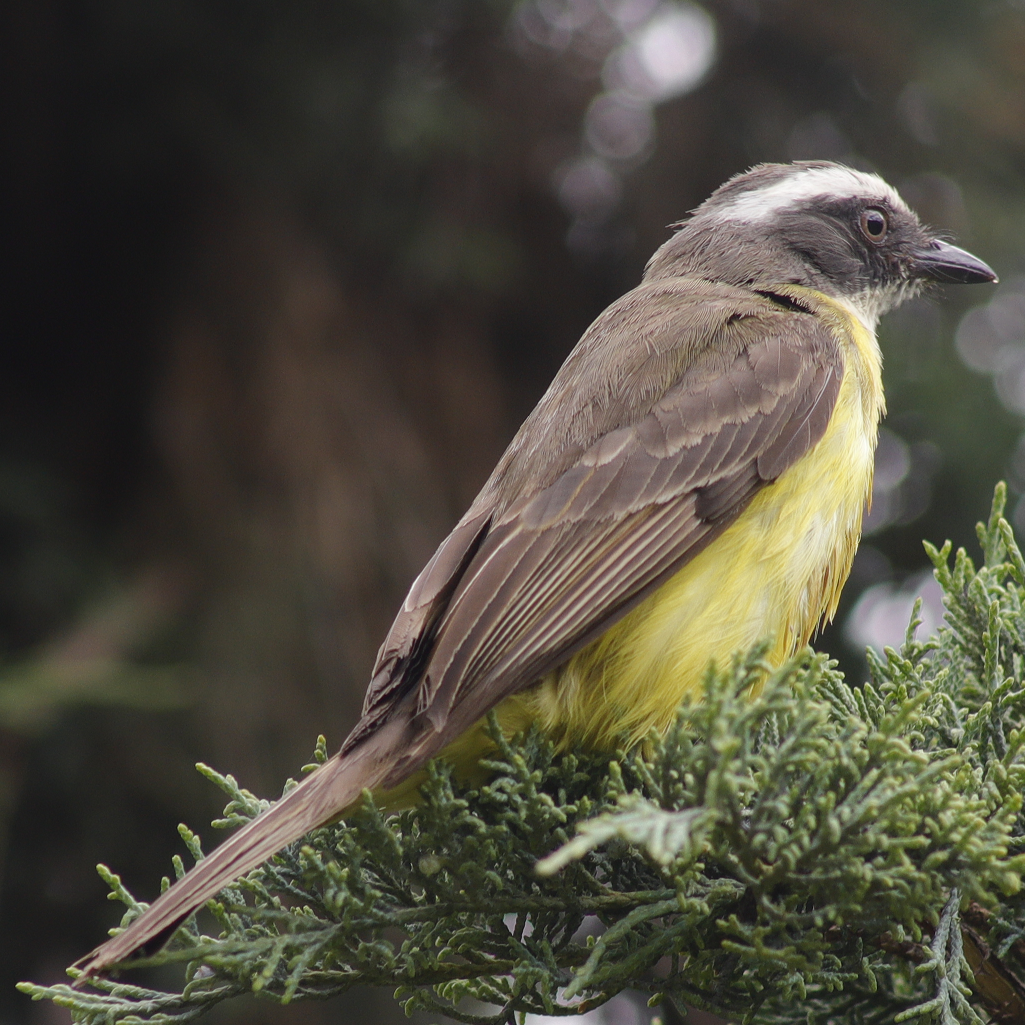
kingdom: Animalia
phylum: Chordata
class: Aves
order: Passeriformes
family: Tyrannidae
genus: Myiozetetes
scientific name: Myiozetetes similis
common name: Social flycatcher
